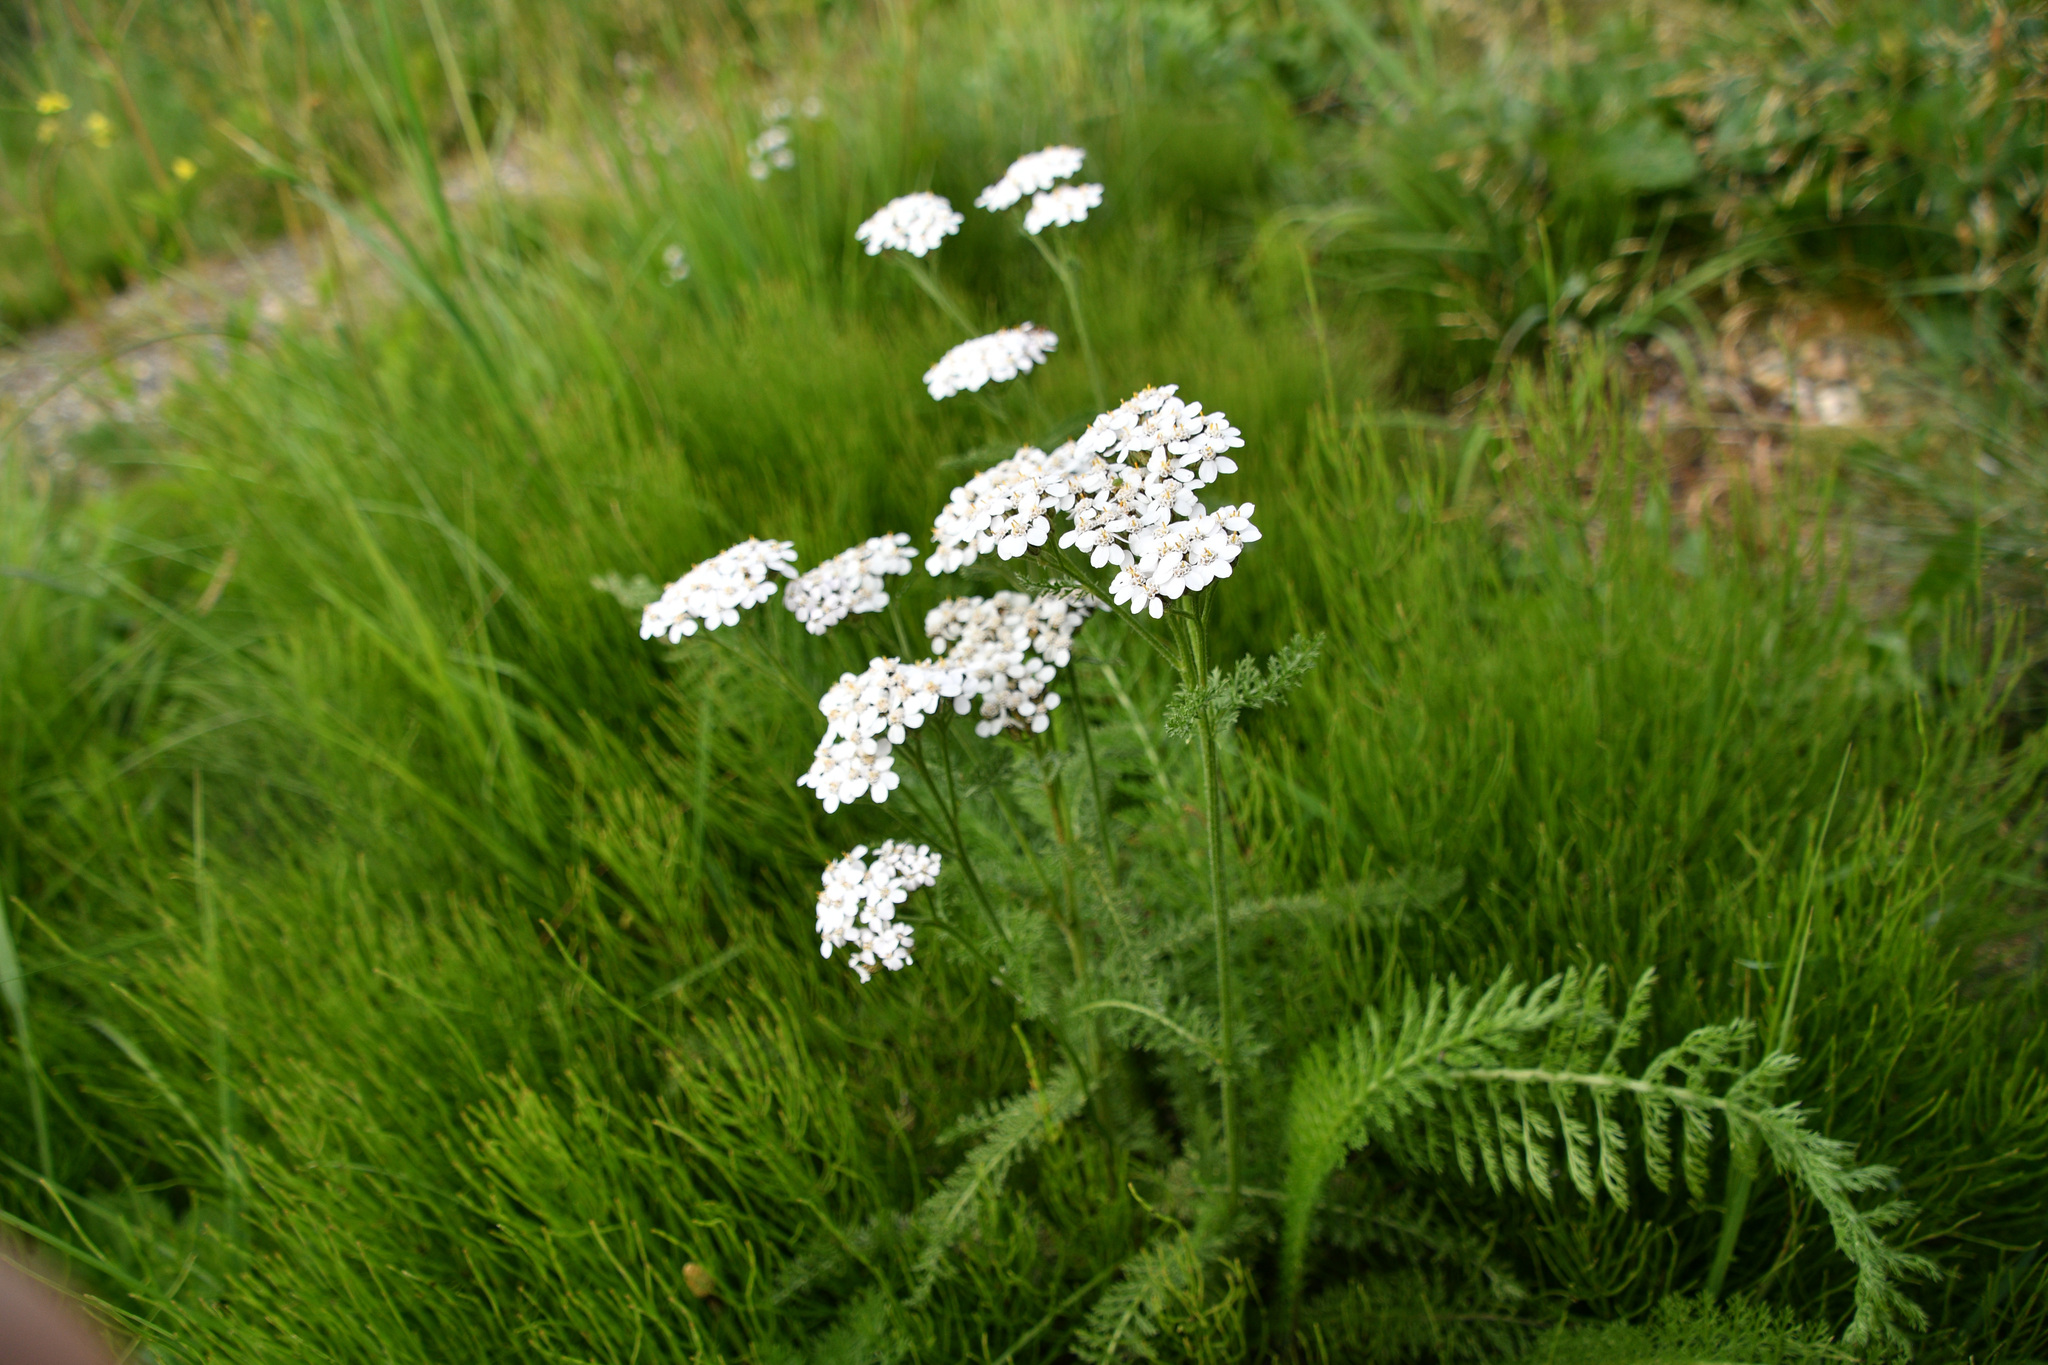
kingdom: Plantae
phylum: Tracheophyta
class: Magnoliopsida
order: Asterales
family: Asteraceae
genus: Achillea
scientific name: Achillea millefolium
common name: Yarrow
